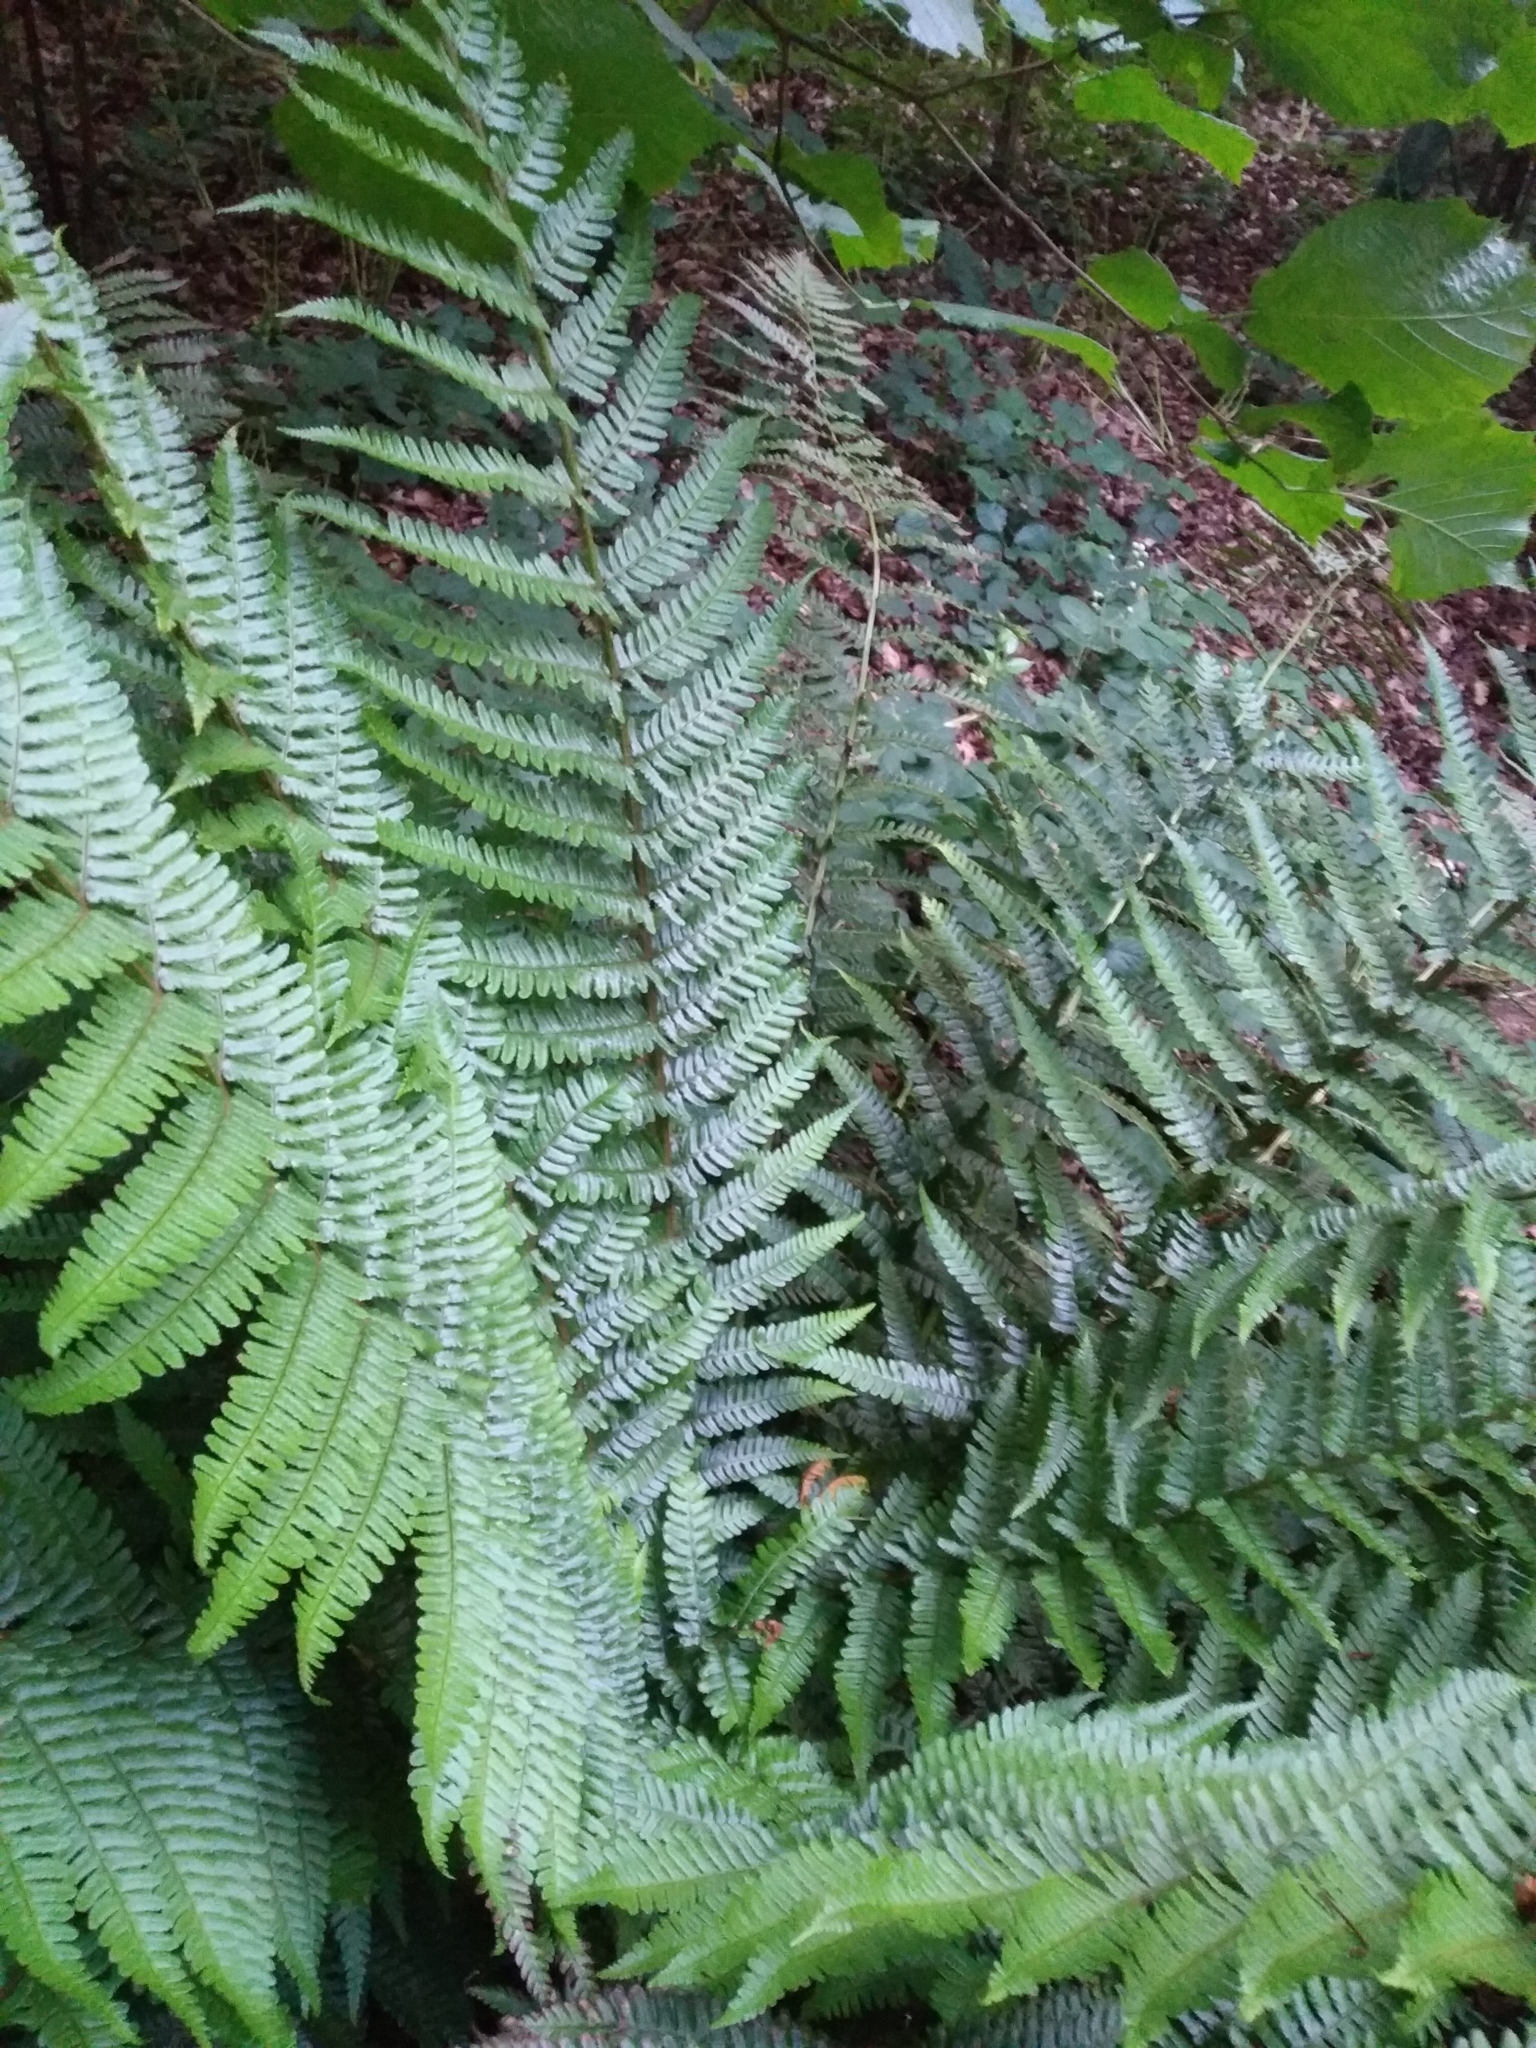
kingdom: Plantae
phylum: Tracheophyta
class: Polypodiopsida
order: Polypodiales
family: Dryopteridaceae
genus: Dryopteris
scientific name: Dryopteris filix-mas
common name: Male fern
